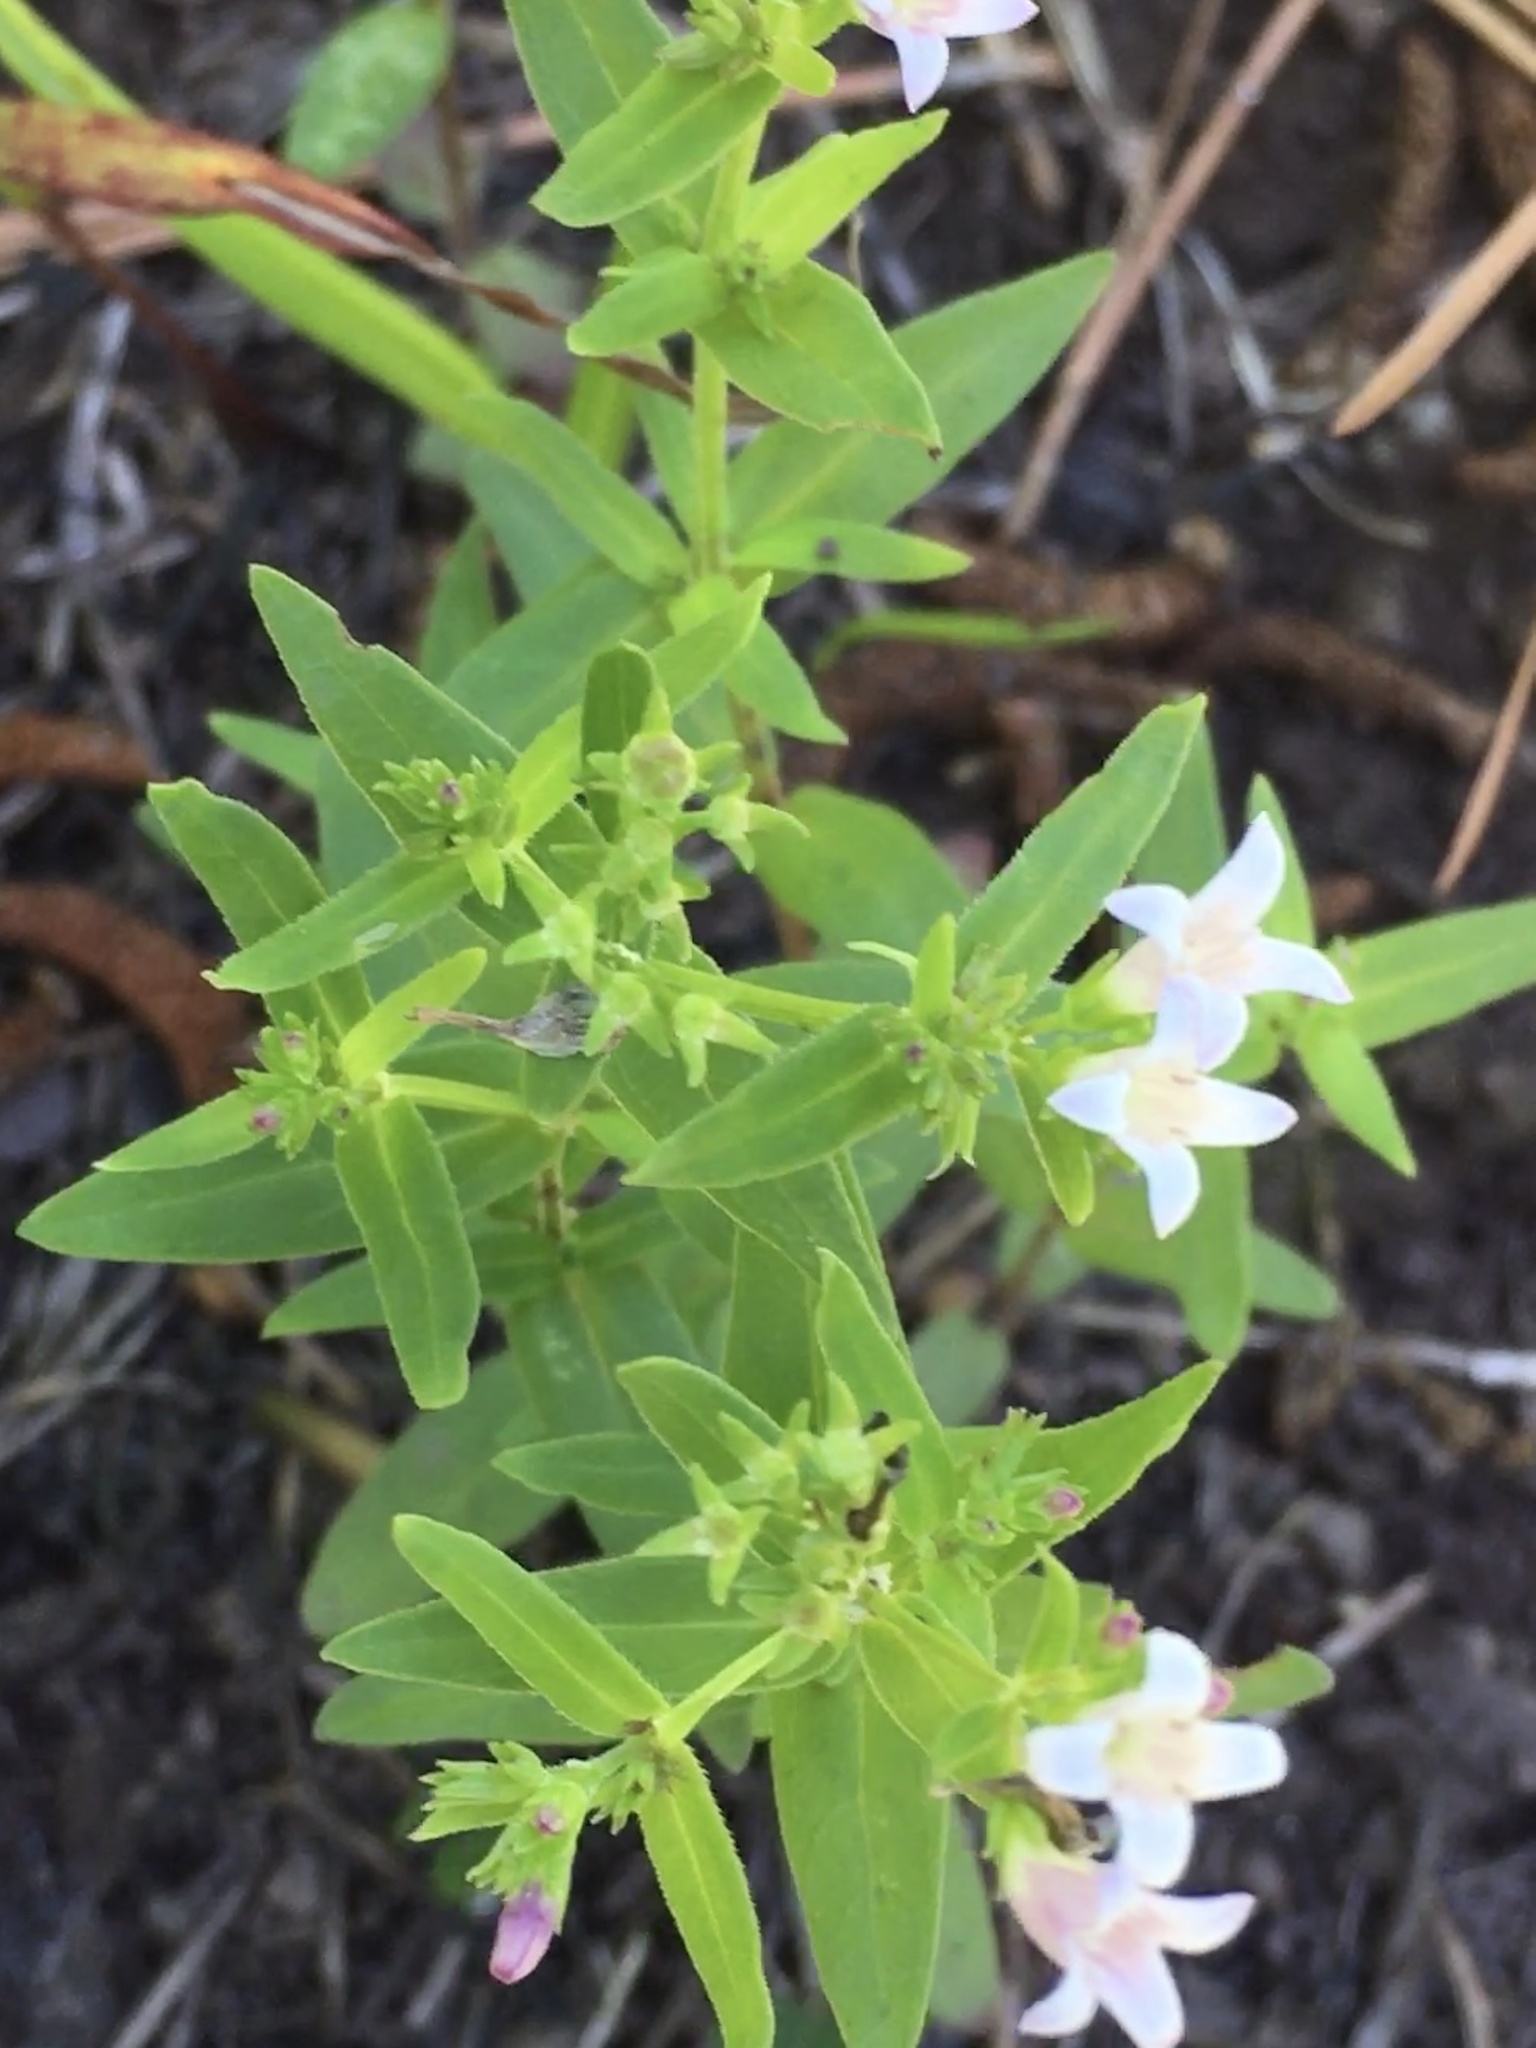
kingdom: Plantae
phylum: Tracheophyta
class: Magnoliopsida
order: Gentianales
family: Rubiaceae
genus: Houstonia
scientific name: Houstonia purpurea
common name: Summer bluet
